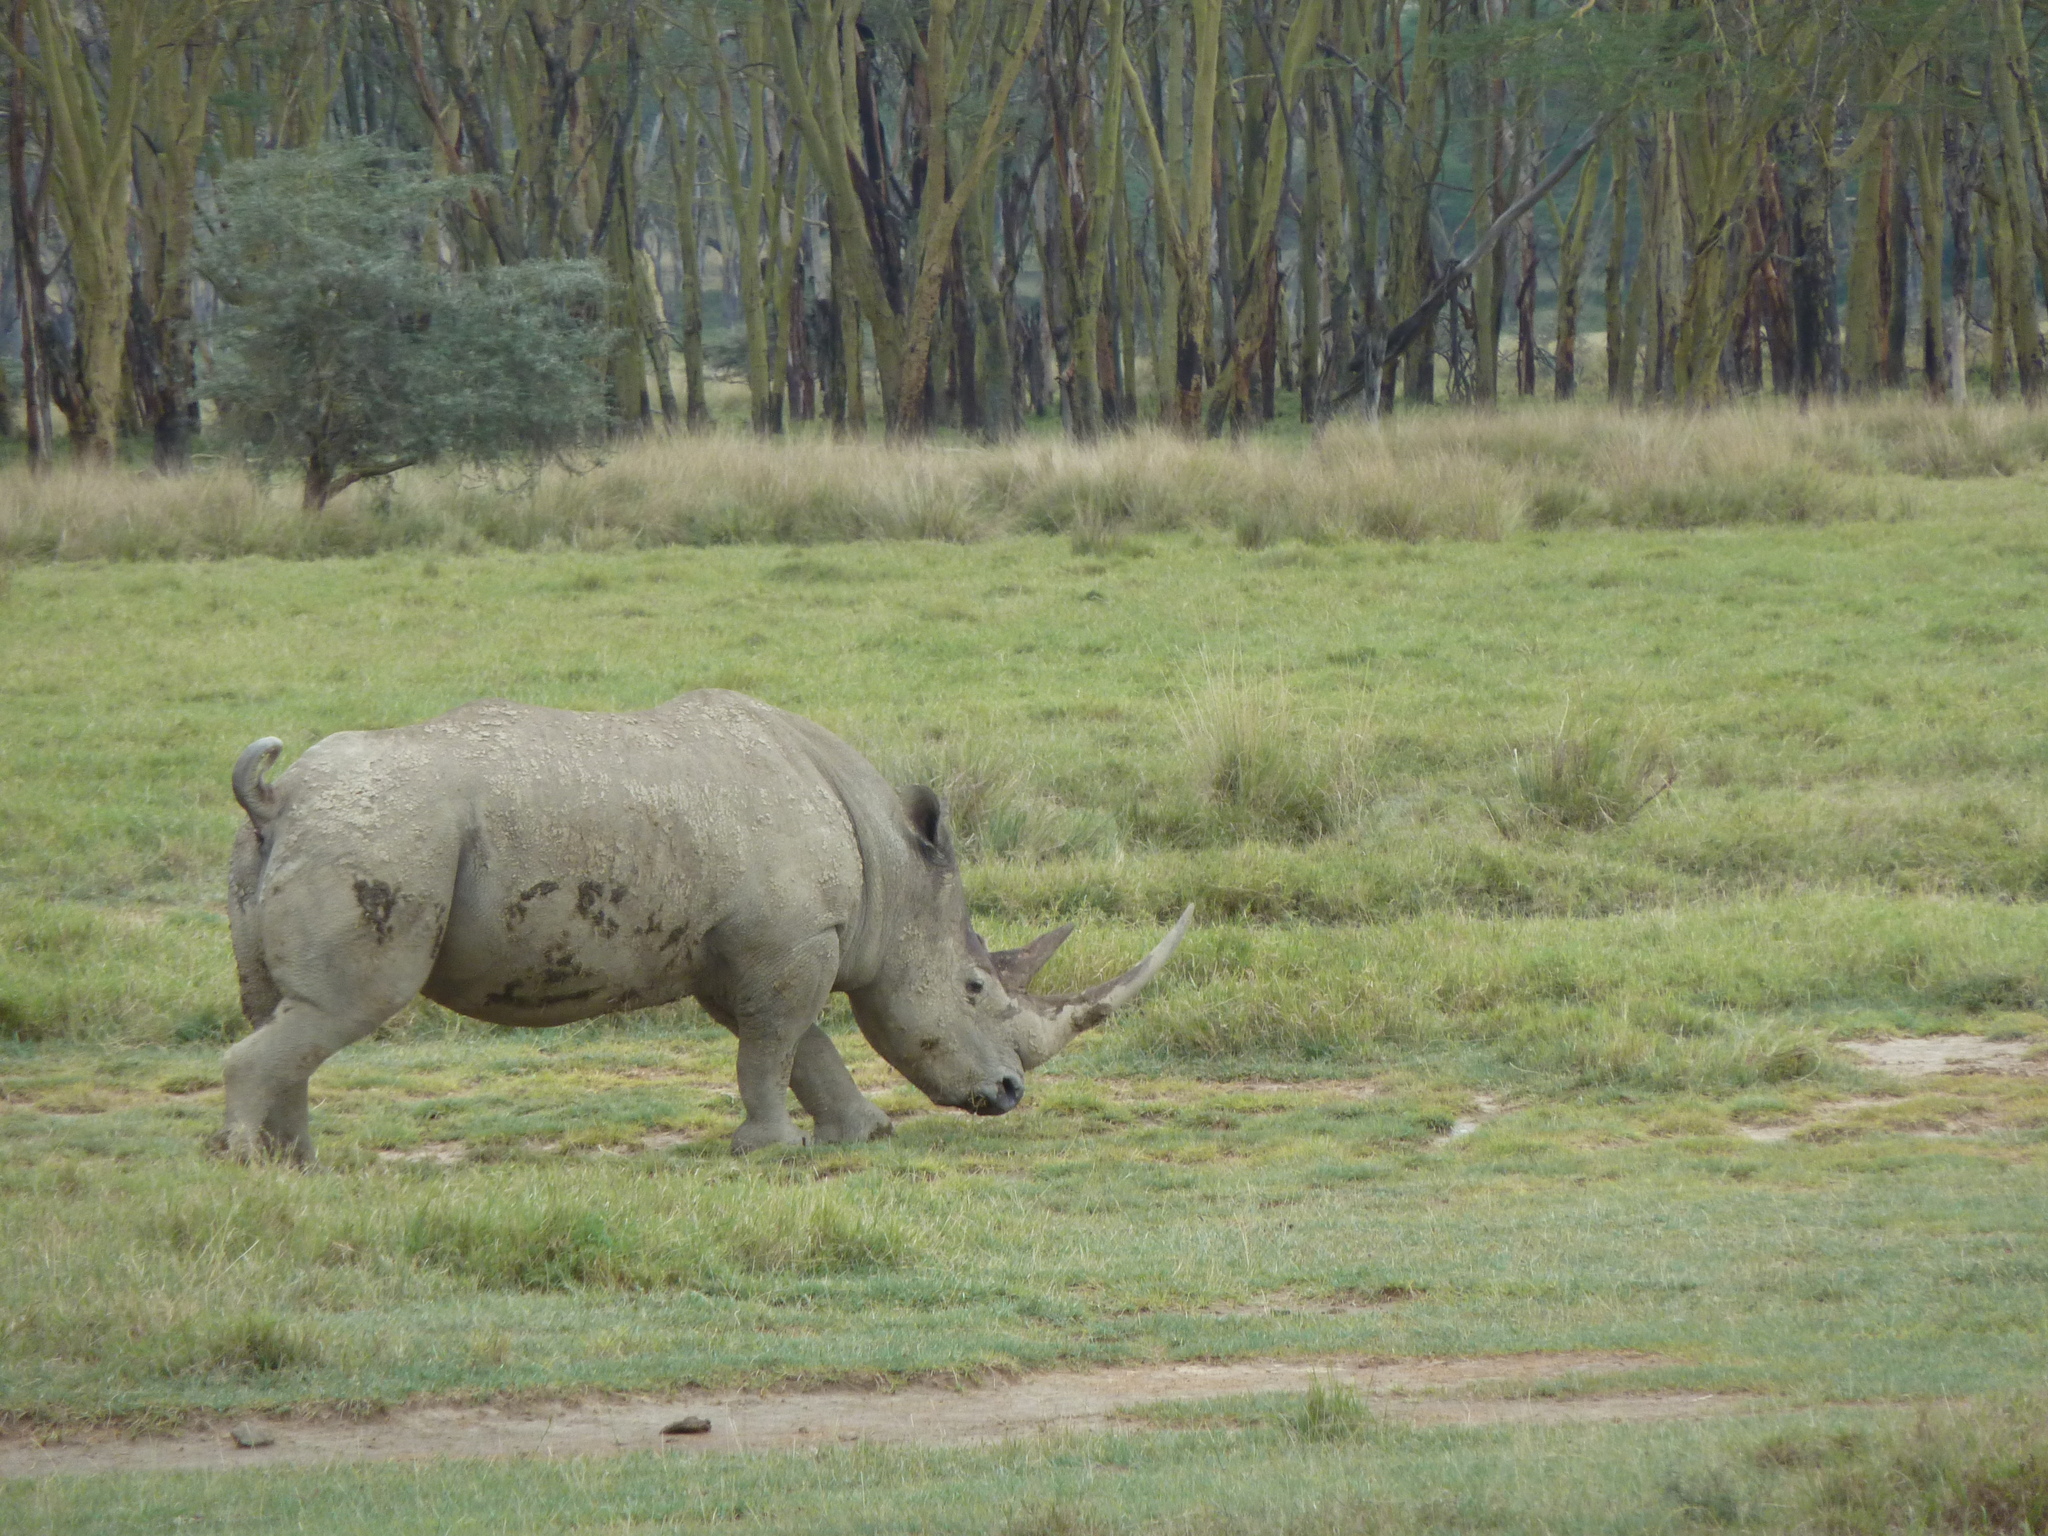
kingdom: Animalia
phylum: Chordata
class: Mammalia
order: Perissodactyla
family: Rhinocerotidae
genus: Ceratotherium
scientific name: Ceratotherium simum
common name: White rhinoceros
